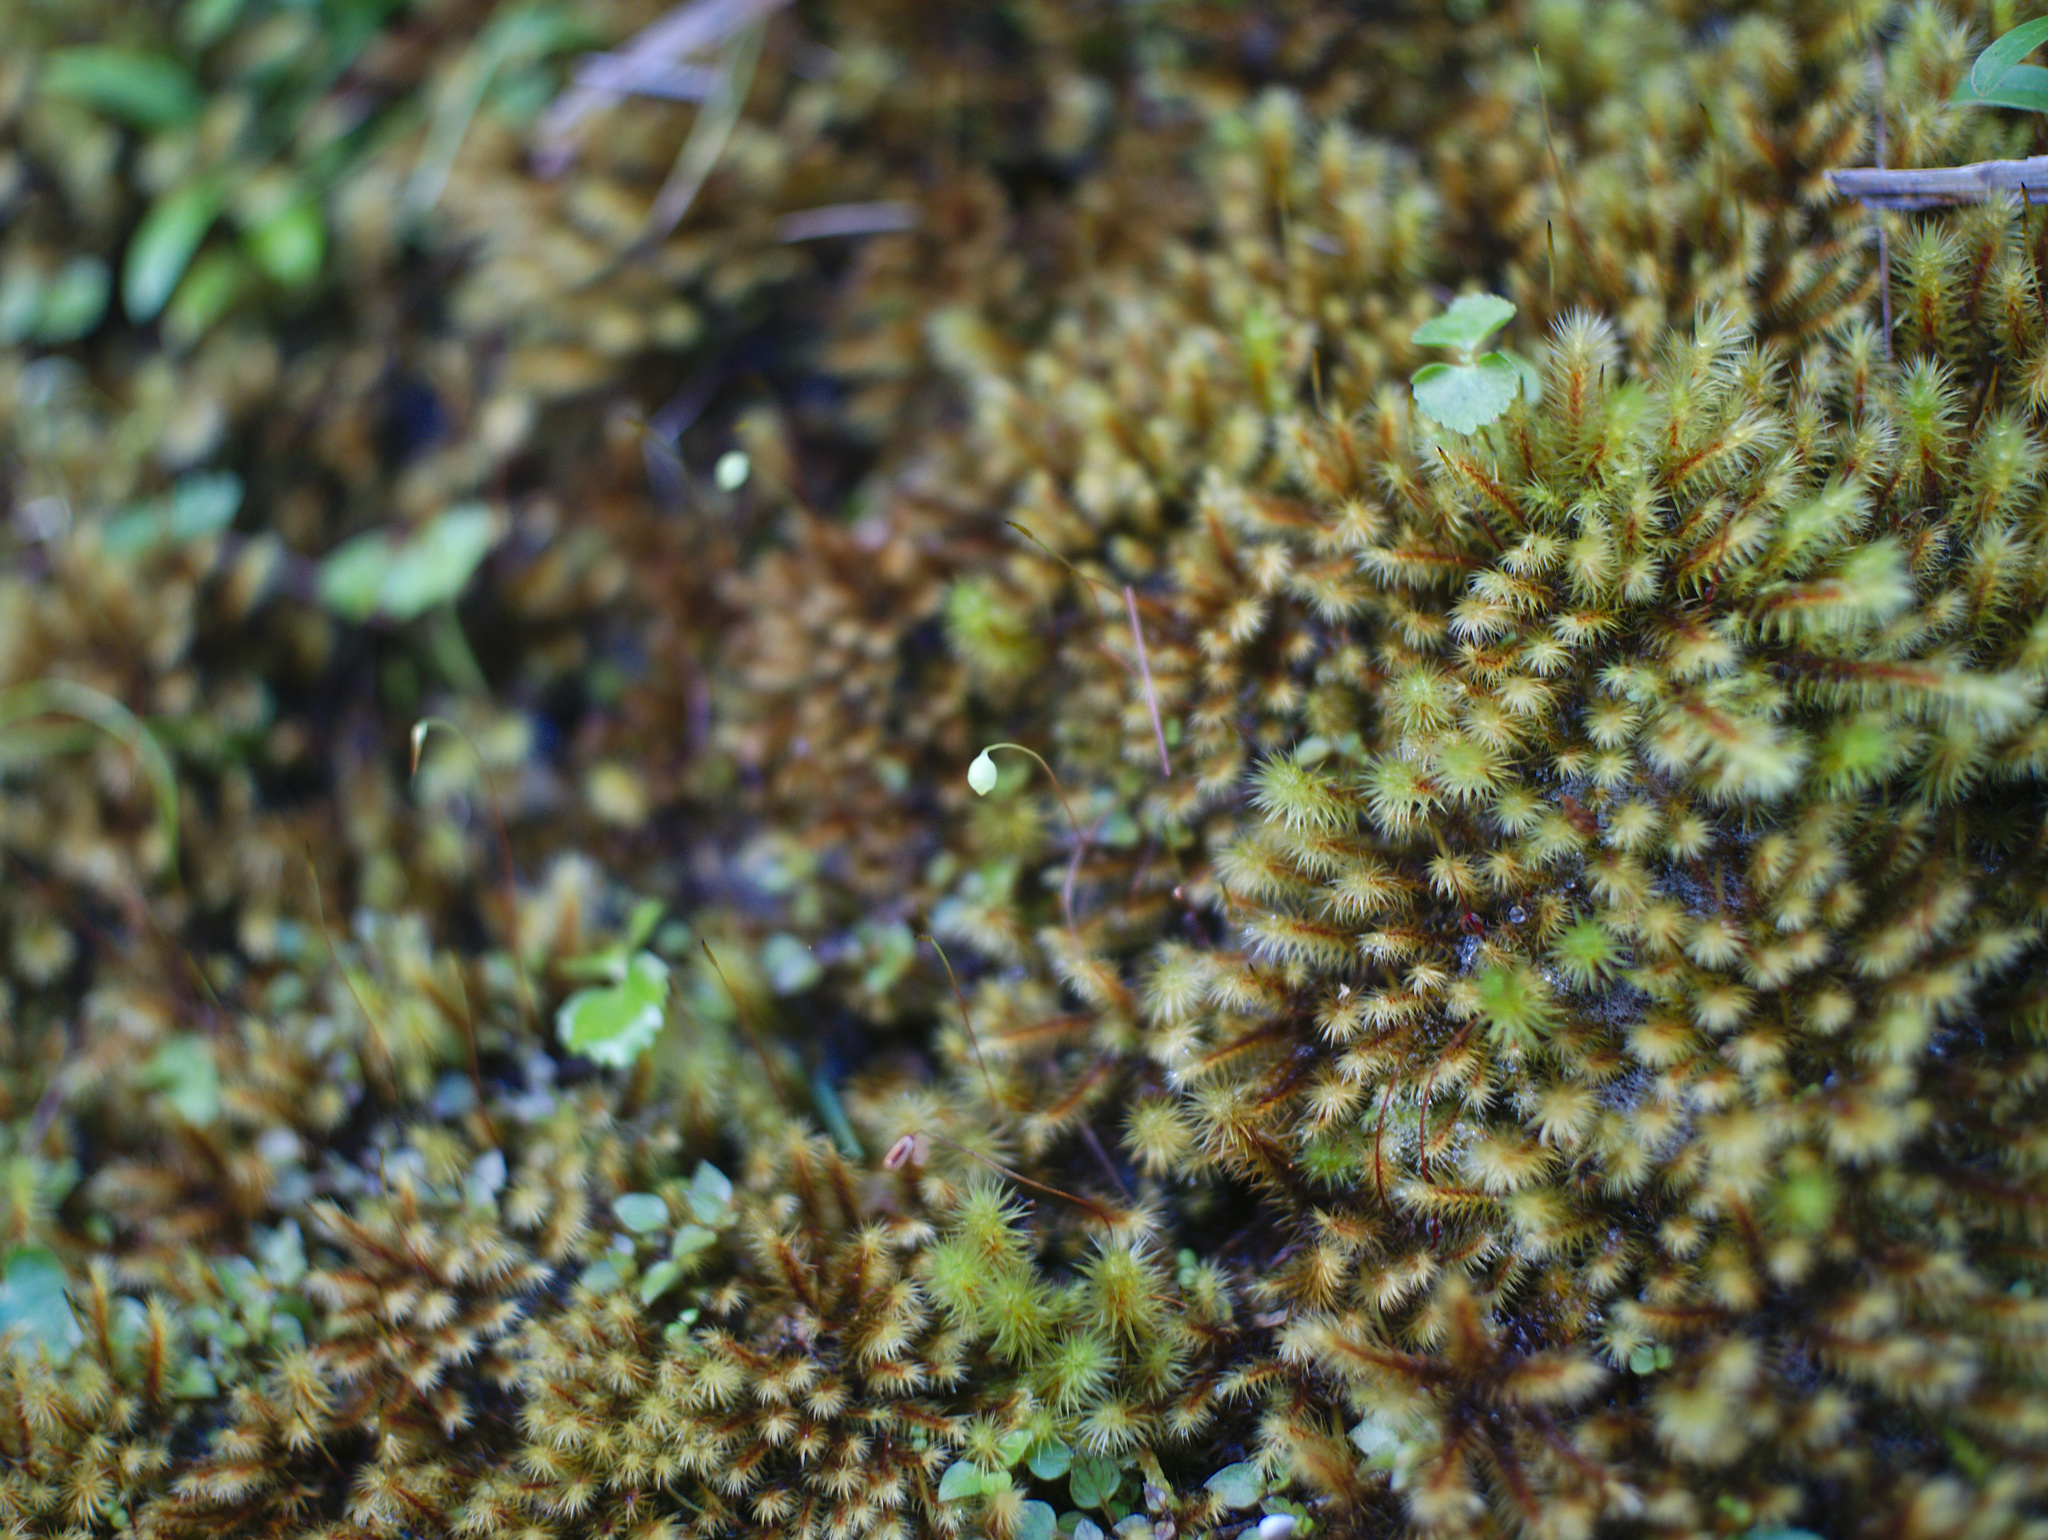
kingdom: Plantae
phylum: Bryophyta
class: Bryopsida
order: Bartramiales
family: Bartramiaceae
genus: Breutelia
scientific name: Breutelia affinis
